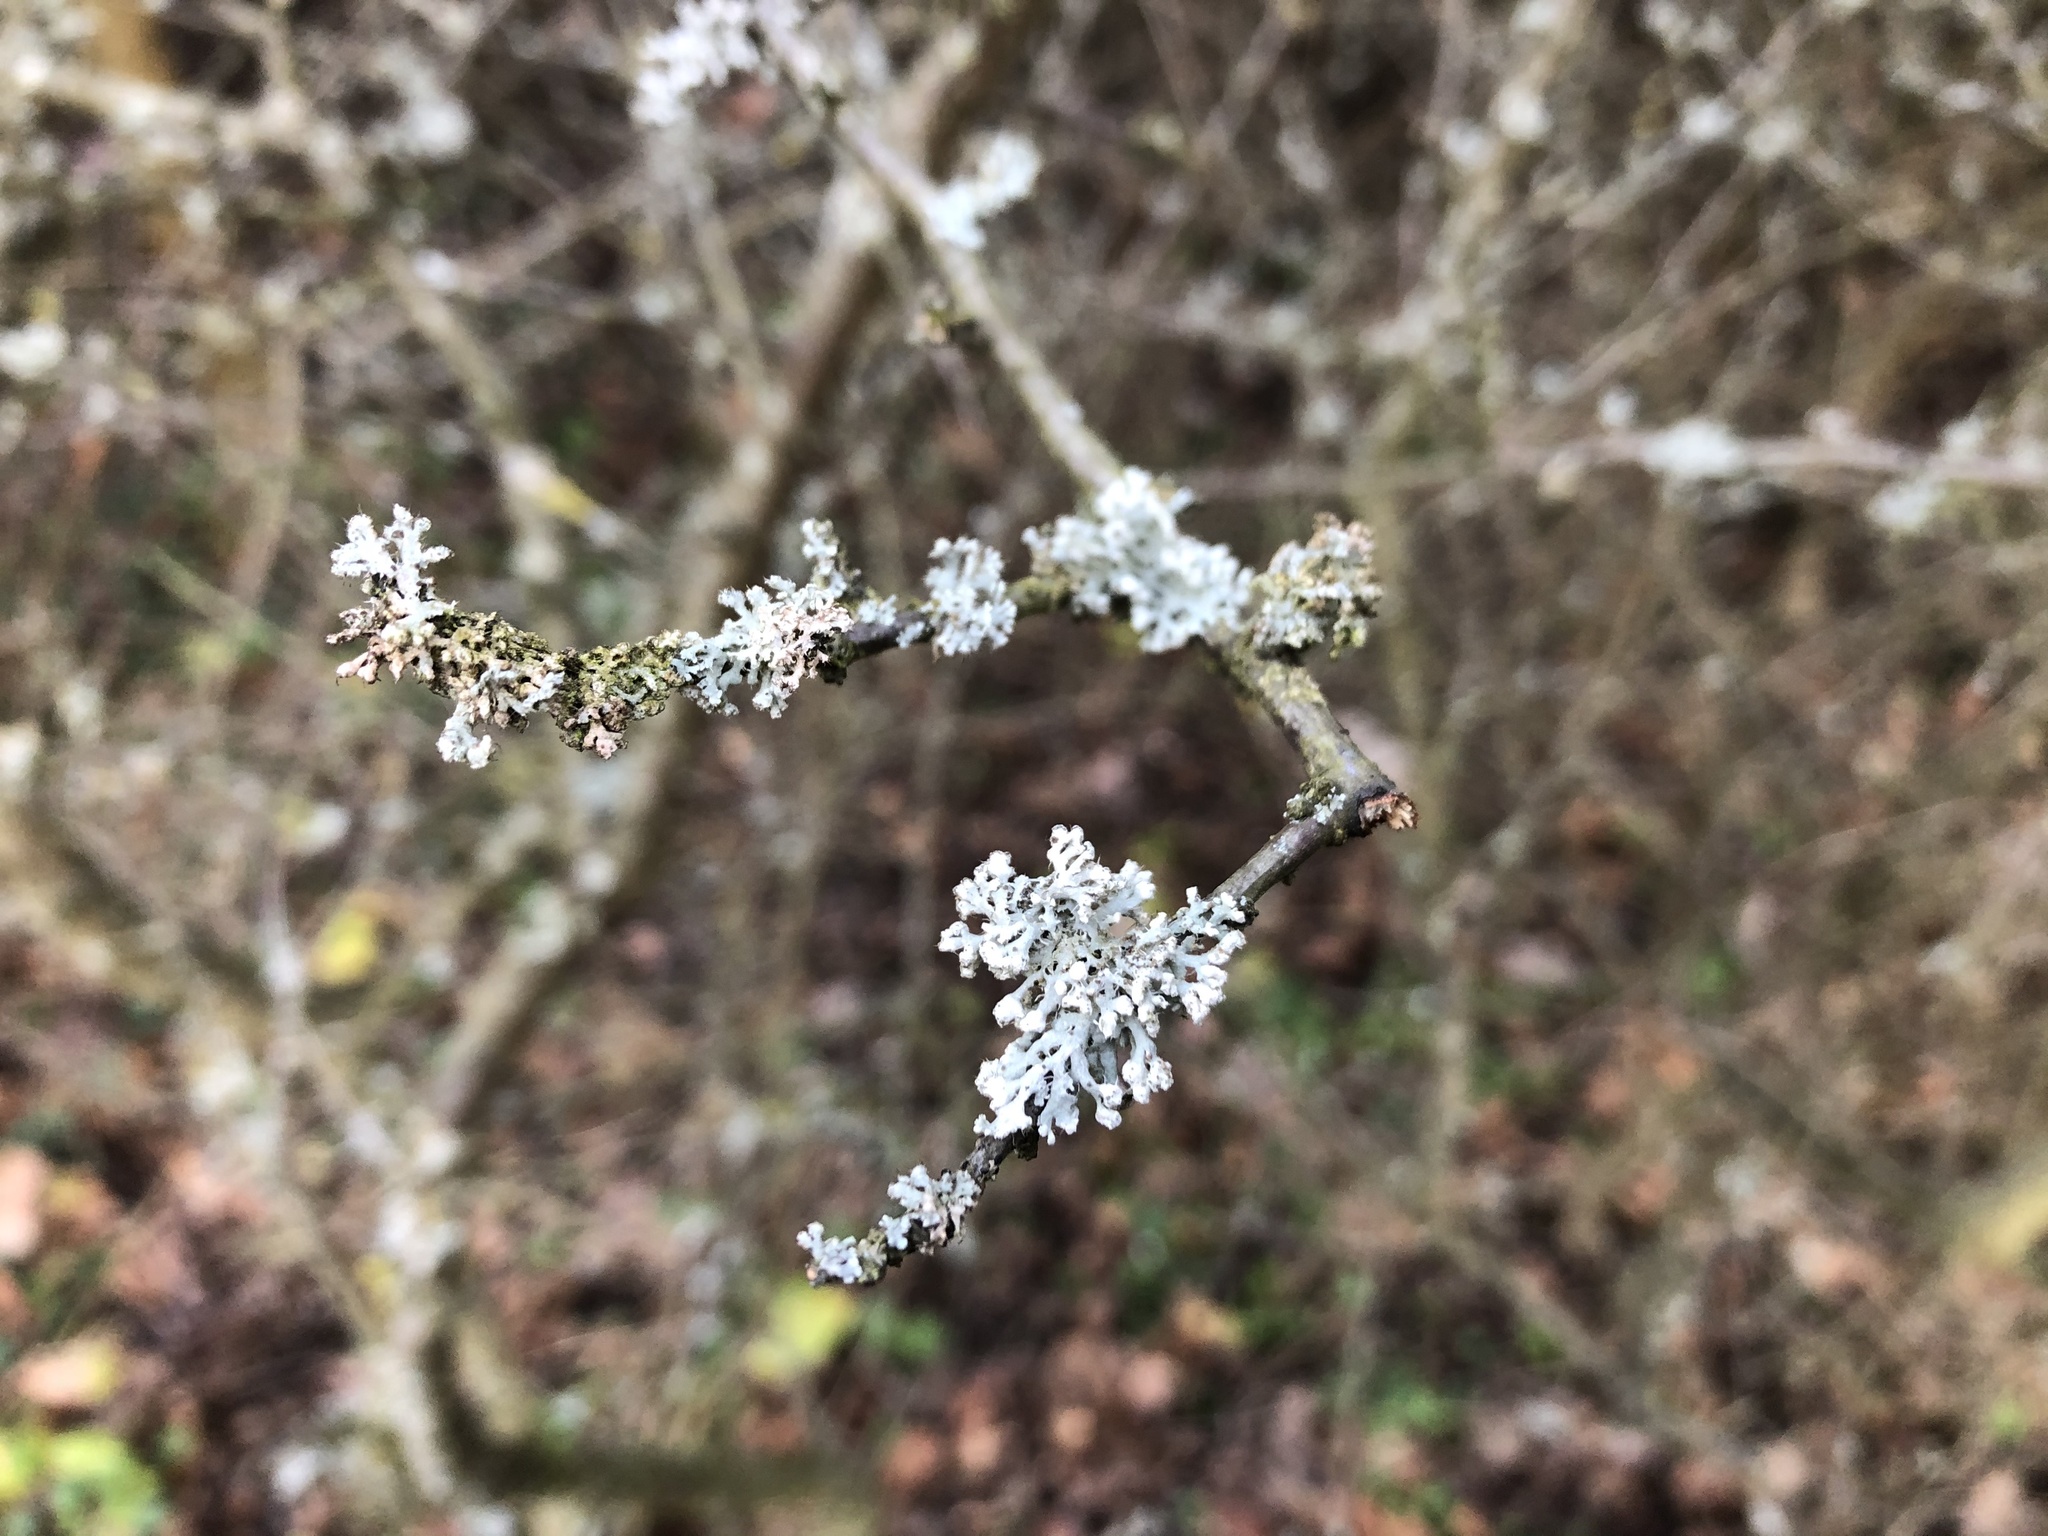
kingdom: Fungi
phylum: Ascomycota
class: Lecanoromycetes
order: Caliciales
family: Physciaceae
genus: Physcia
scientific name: Physcia adscendens
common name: Hooded rosette lichen
